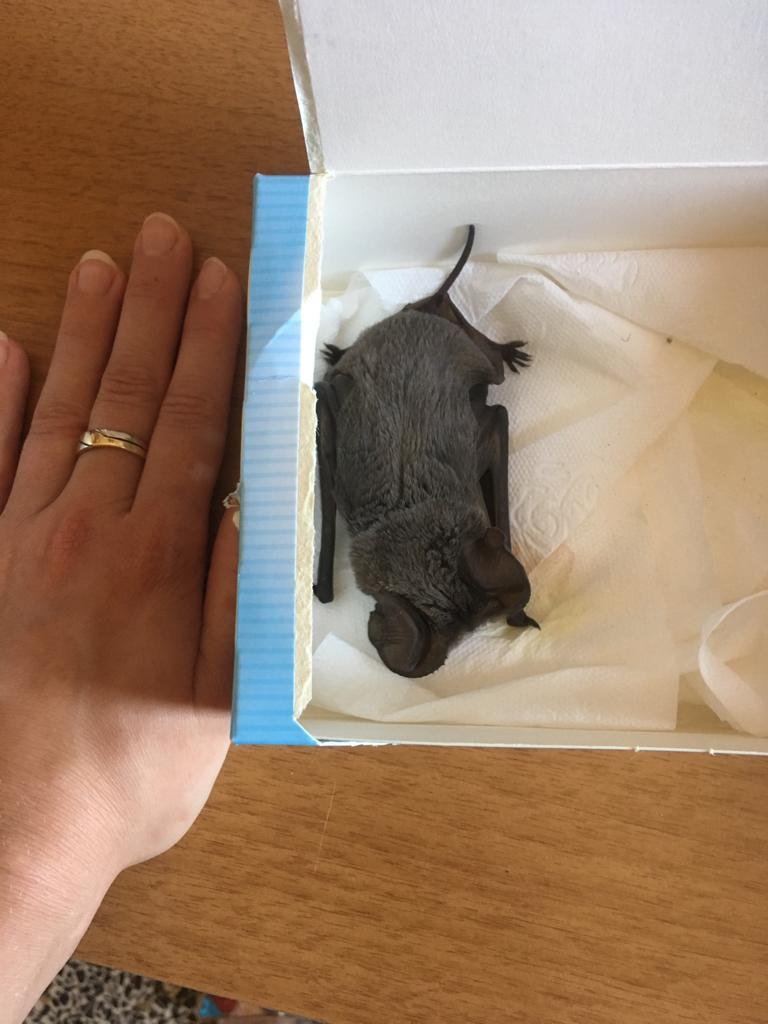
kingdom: Animalia
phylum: Chordata
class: Mammalia
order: Chiroptera
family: Molossidae
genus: Tadarida
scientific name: Tadarida teniotis
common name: European free-tailed bat
